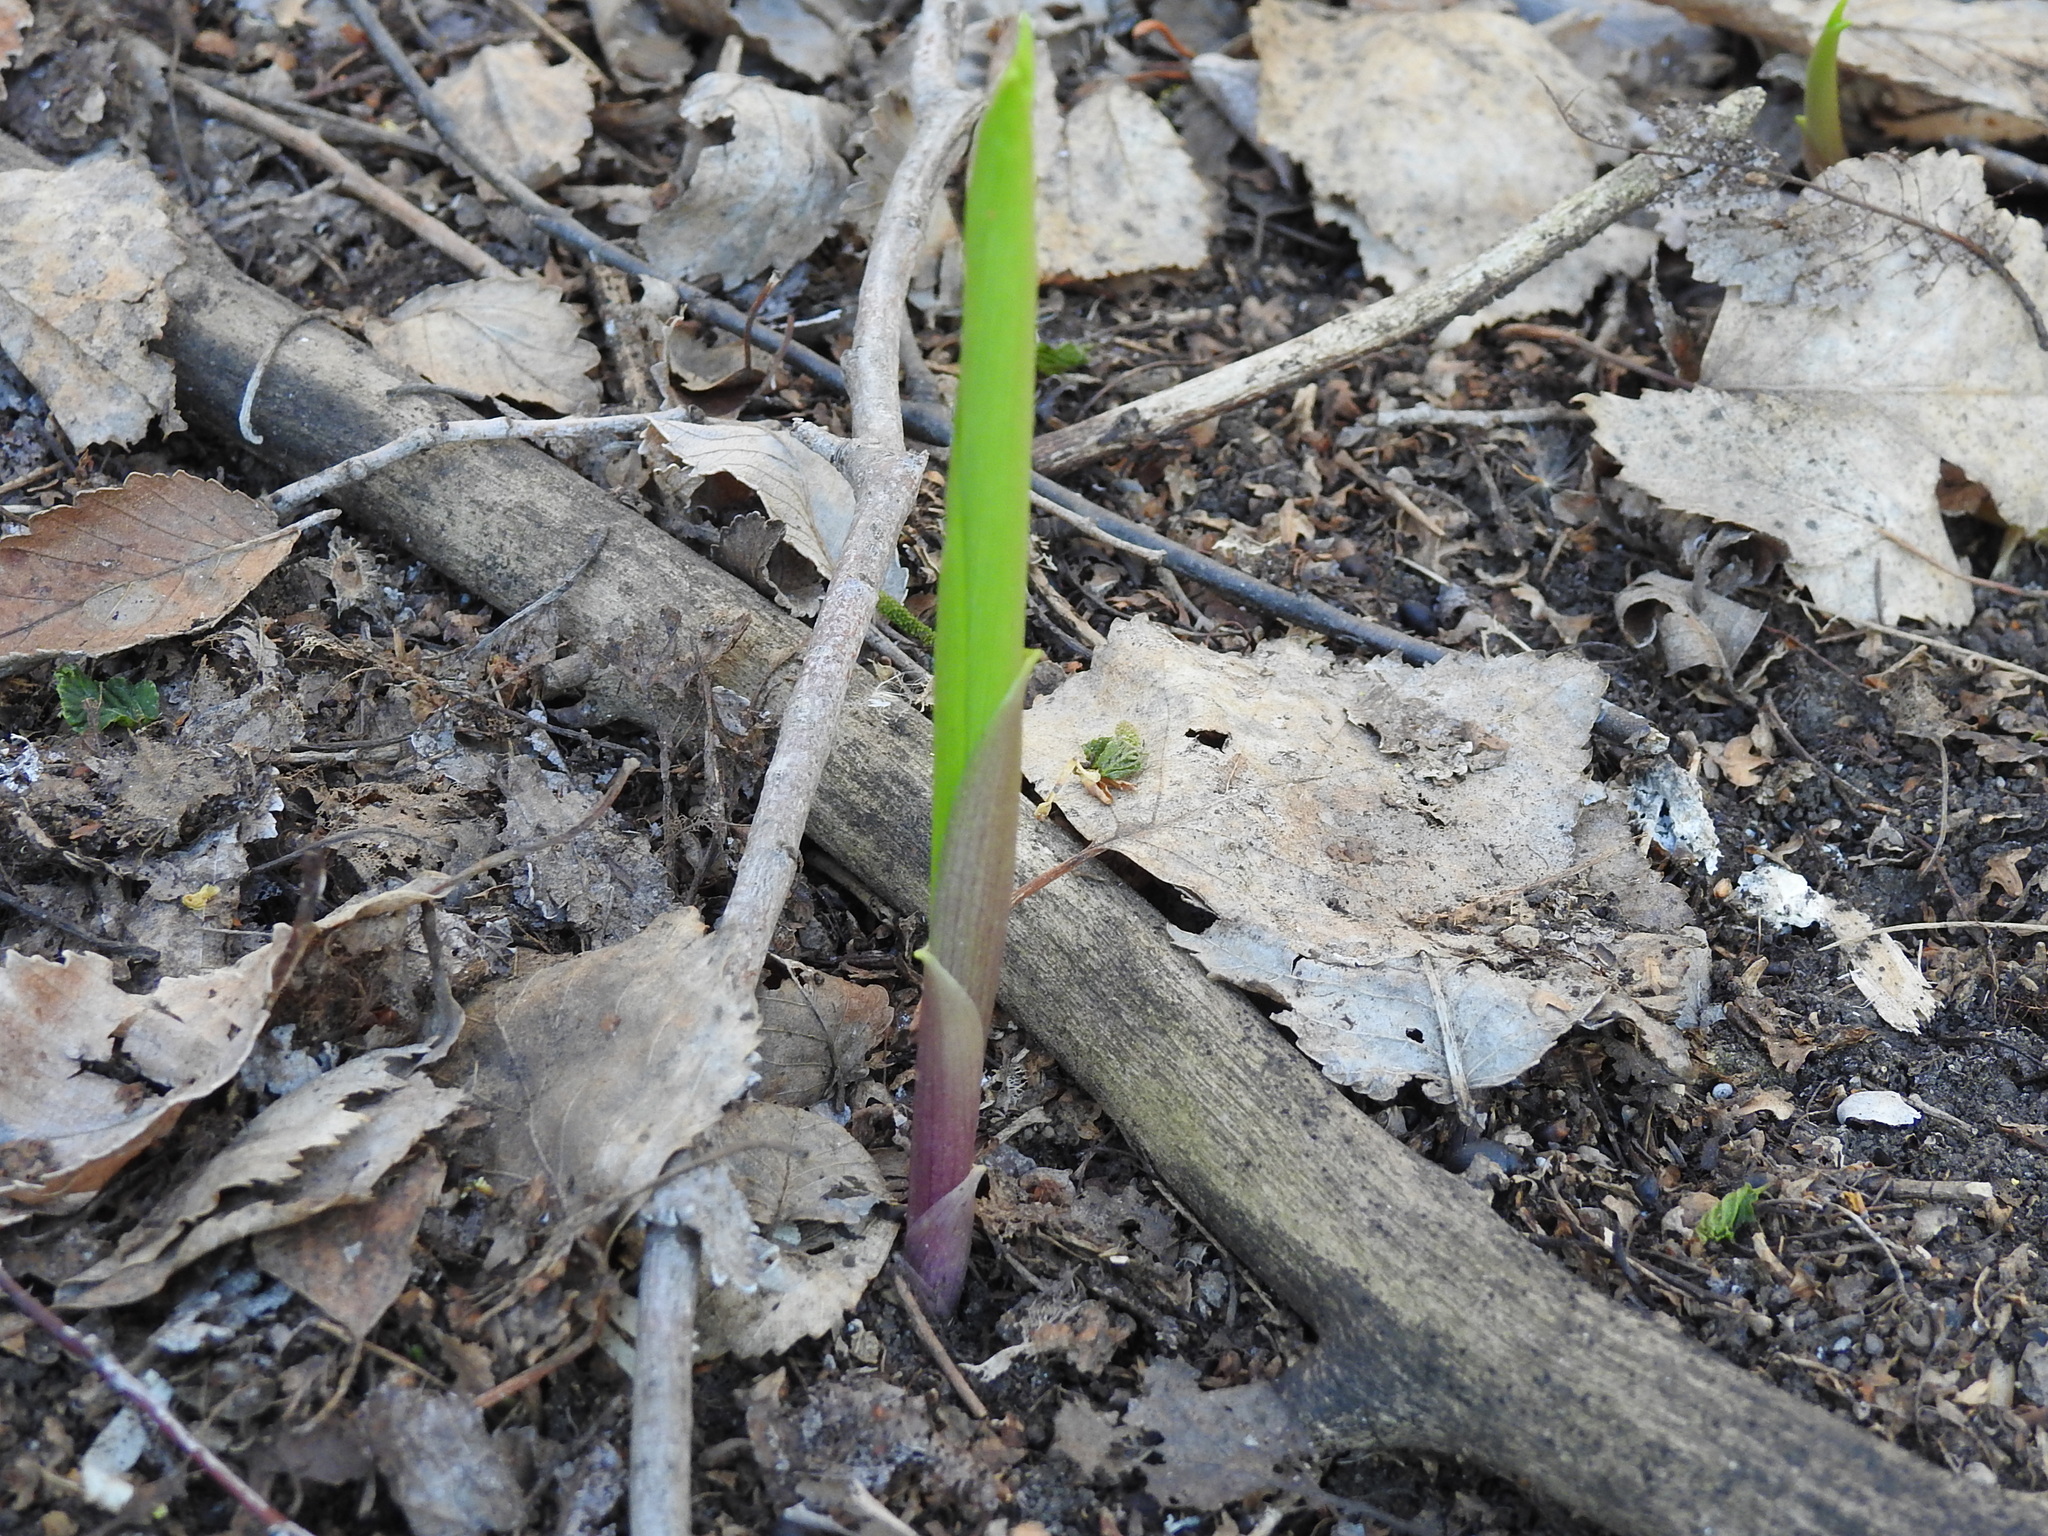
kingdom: Plantae
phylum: Tracheophyta
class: Liliopsida
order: Asparagales
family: Asparagaceae
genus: Convallaria
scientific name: Convallaria majalis
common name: Lily-of-the-valley
